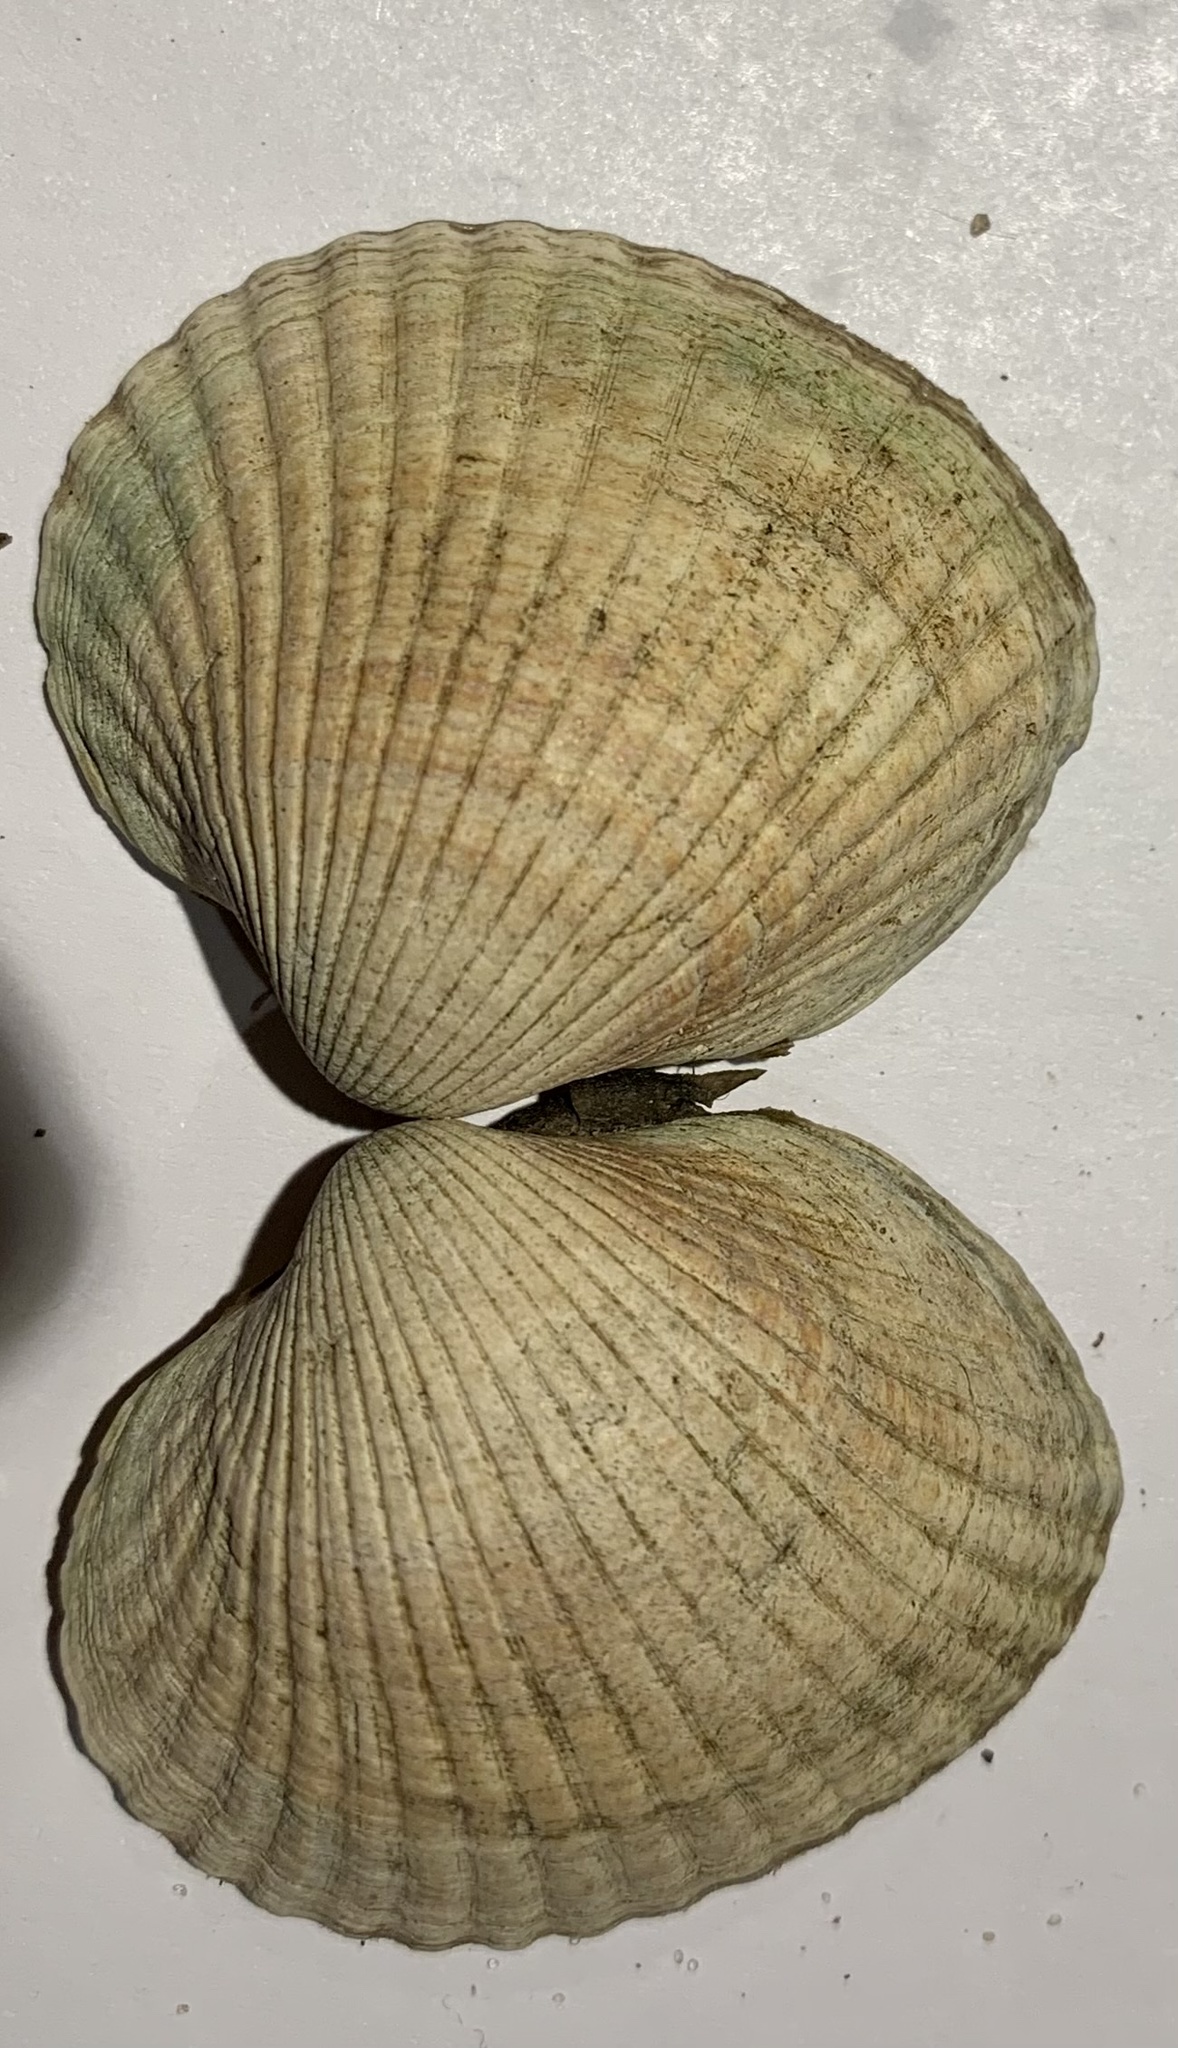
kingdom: Animalia
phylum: Mollusca
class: Bivalvia
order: Cardiida
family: Cardiidae
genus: Cerastoderma
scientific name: Cerastoderma edule
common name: Common cockle
